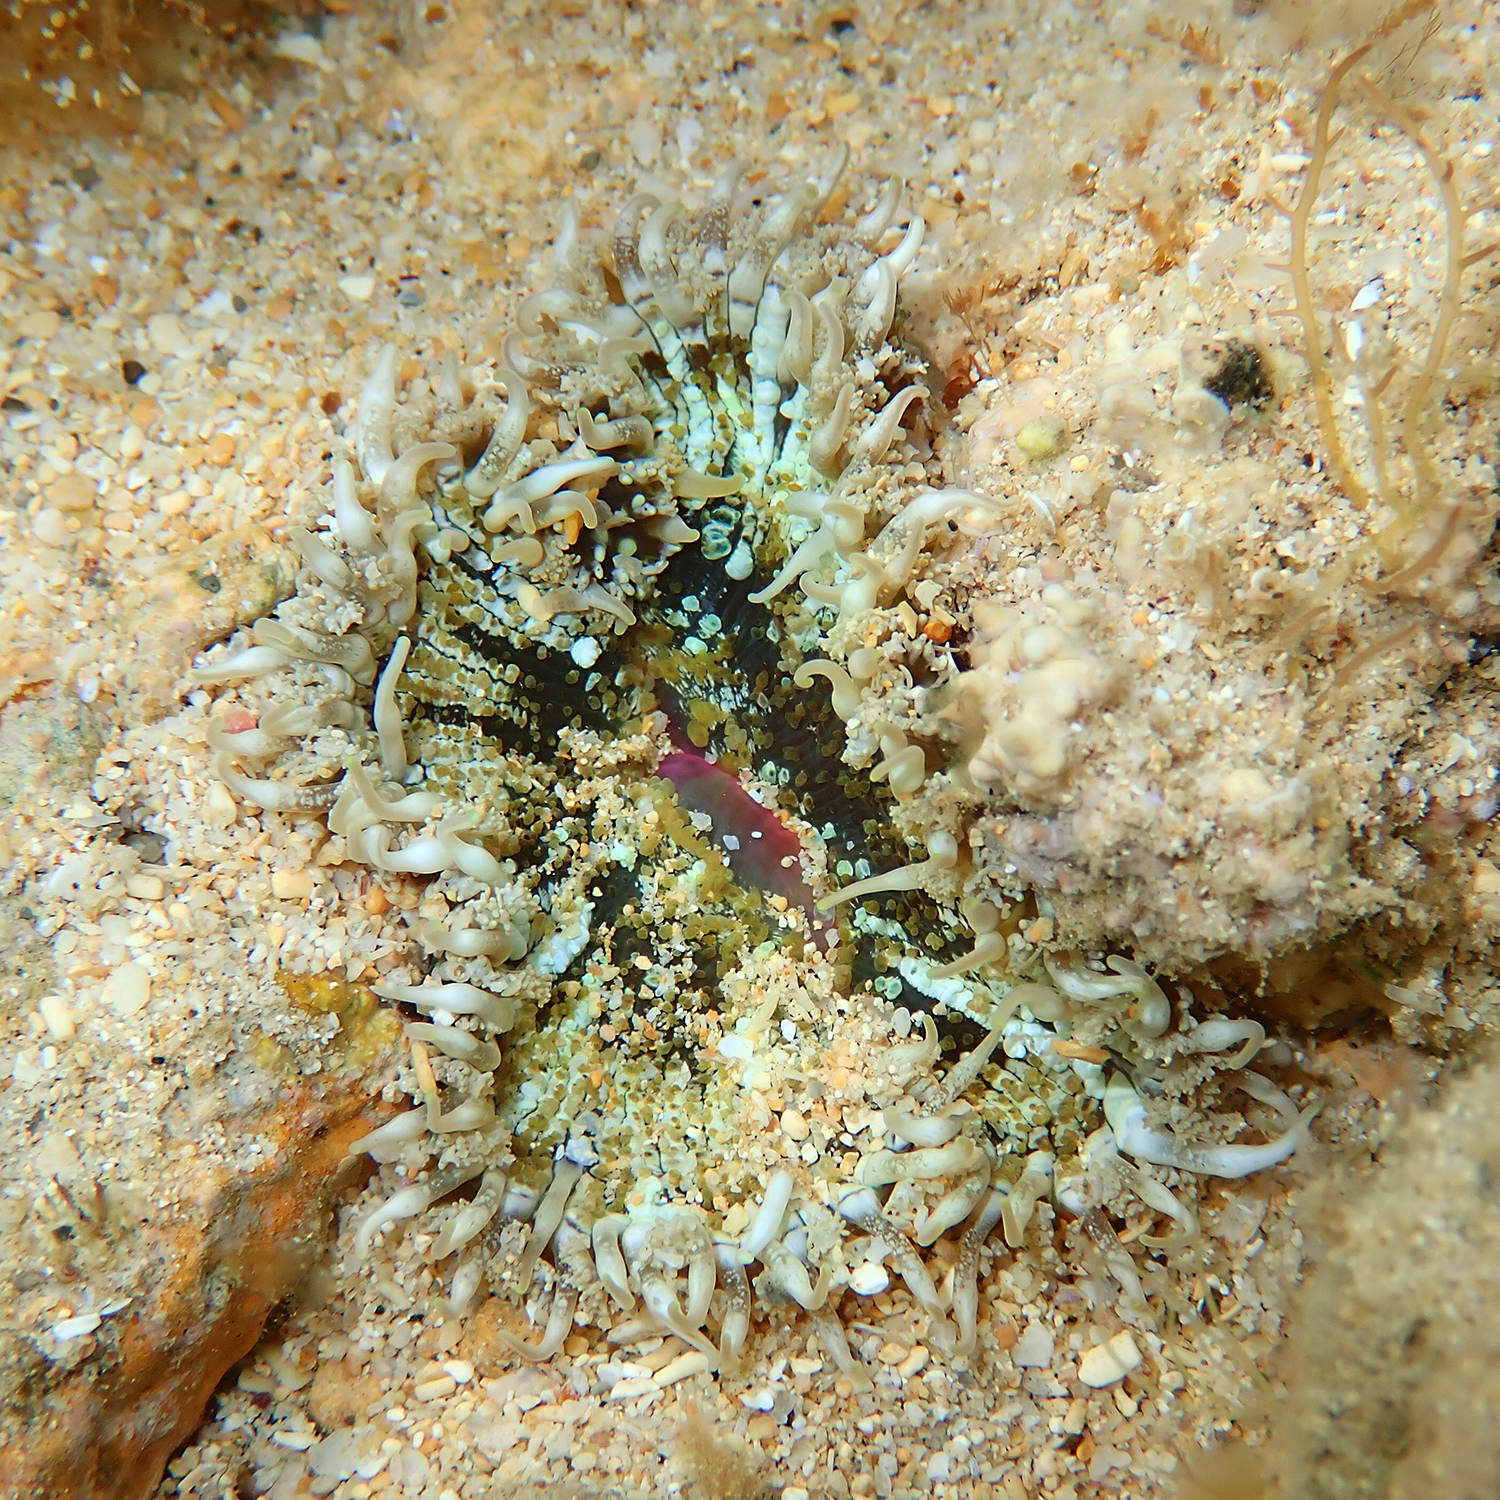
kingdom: Animalia
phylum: Cnidaria
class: Anthozoa
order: Actiniaria
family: Heteranthidae
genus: Heteranthus
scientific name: Heteranthus verruculatus
